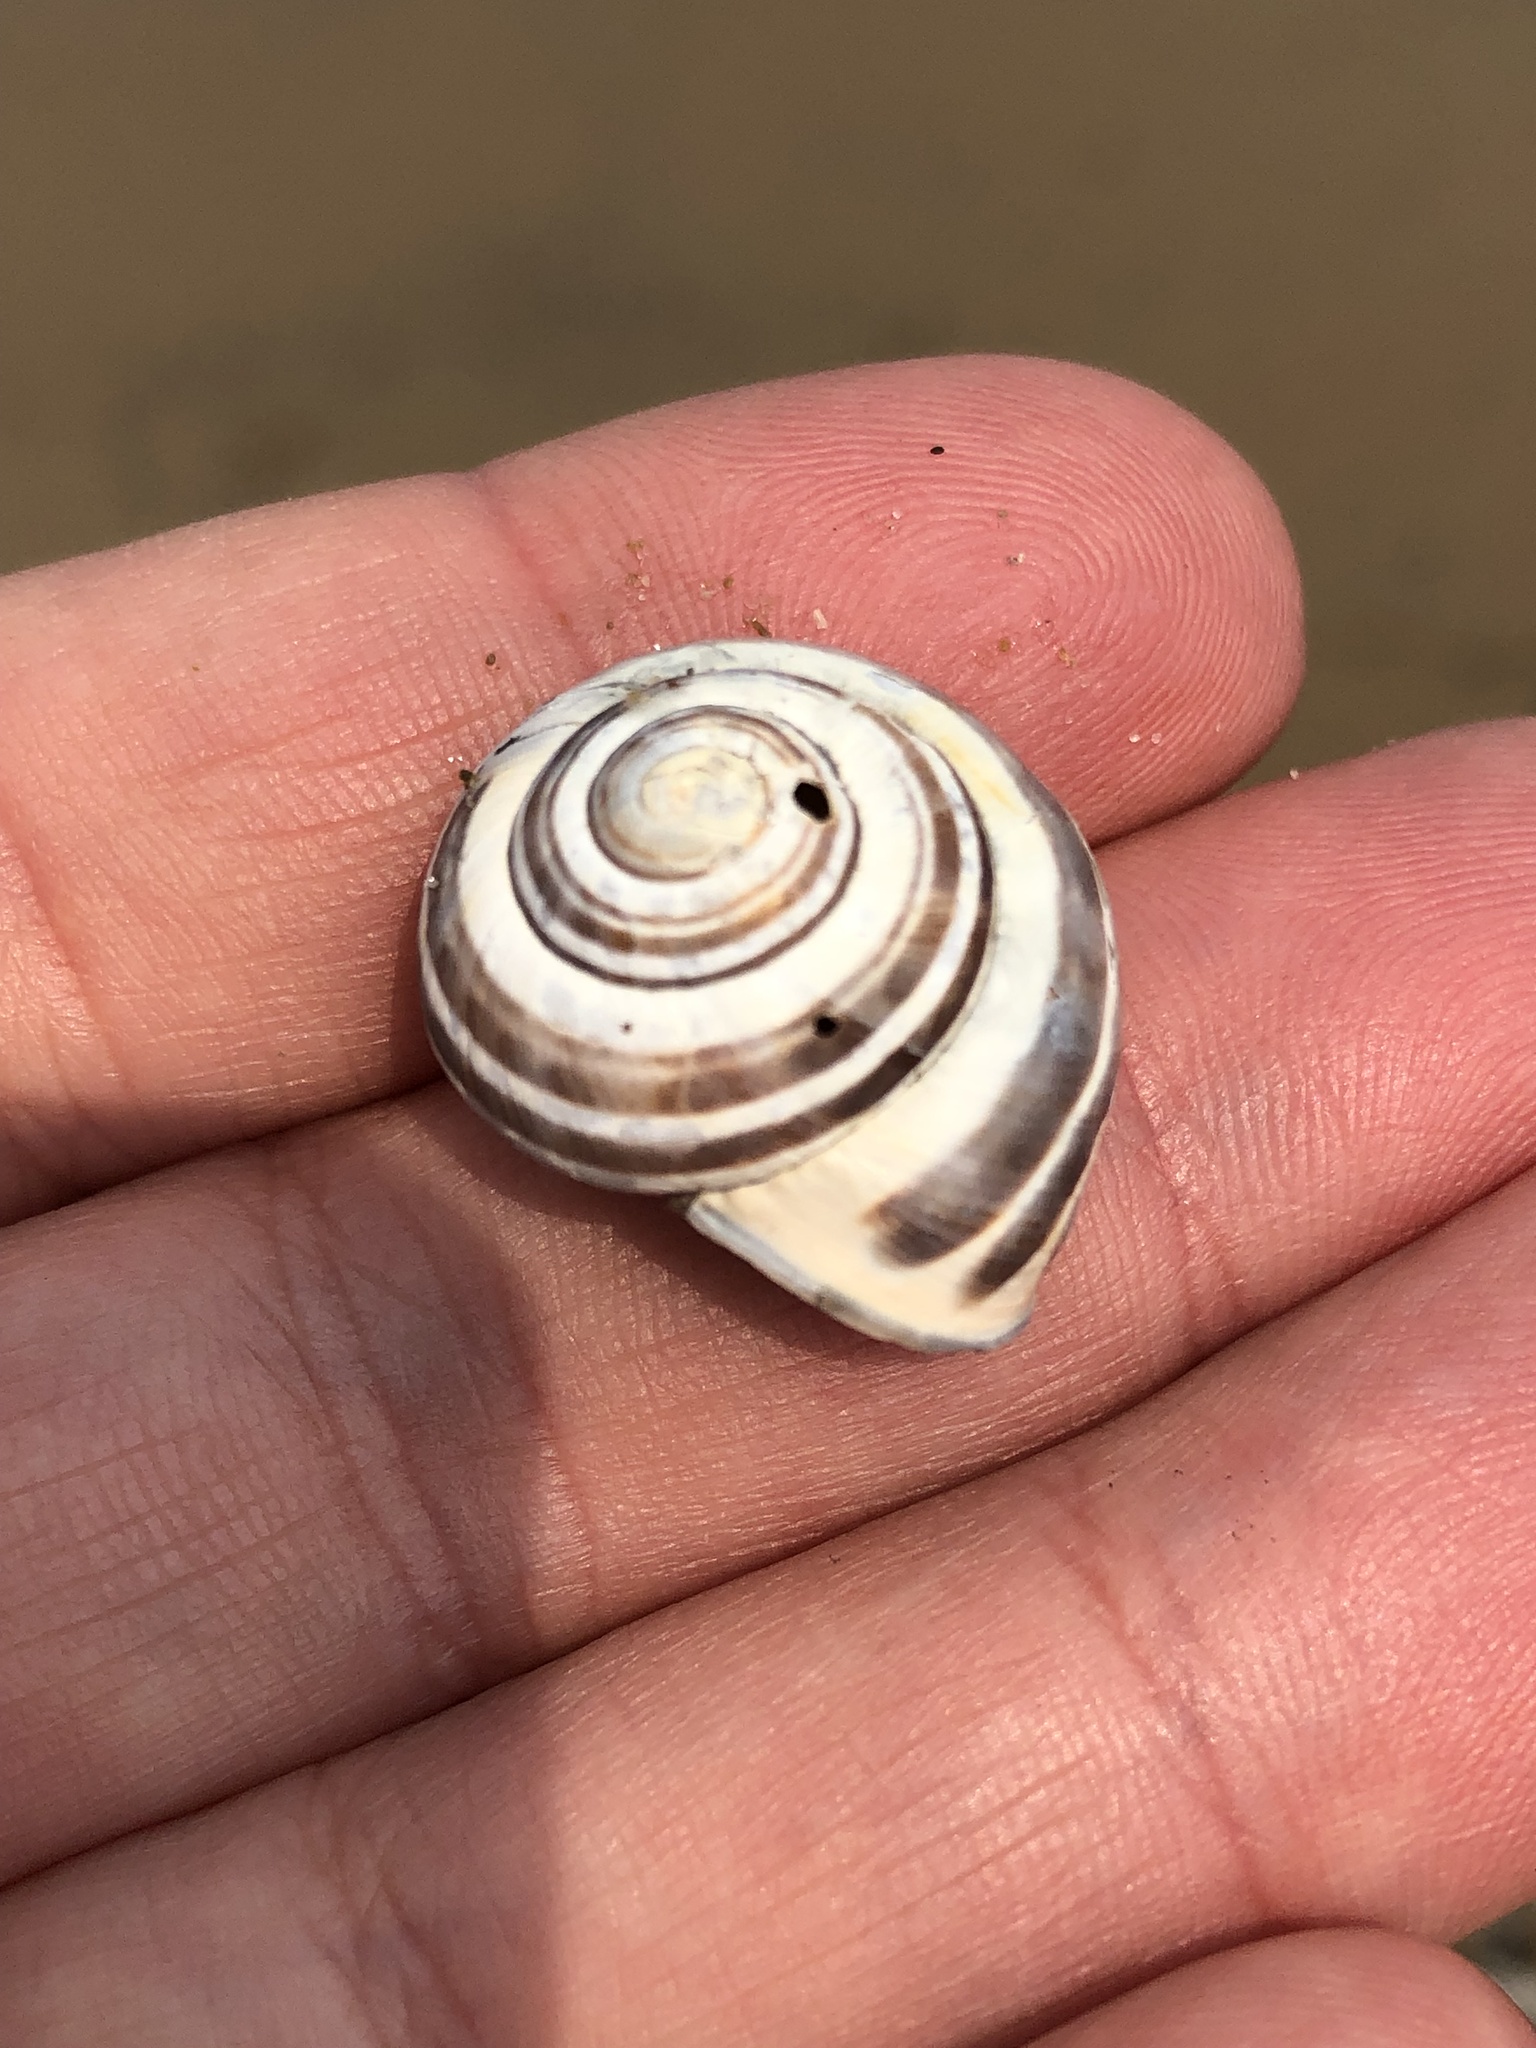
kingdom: Animalia
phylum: Mollusca
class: Gastropoda
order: Stylommatophora
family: Helicidae
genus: Cepaea
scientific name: Cepaea nemoralis
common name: Grovesnail
